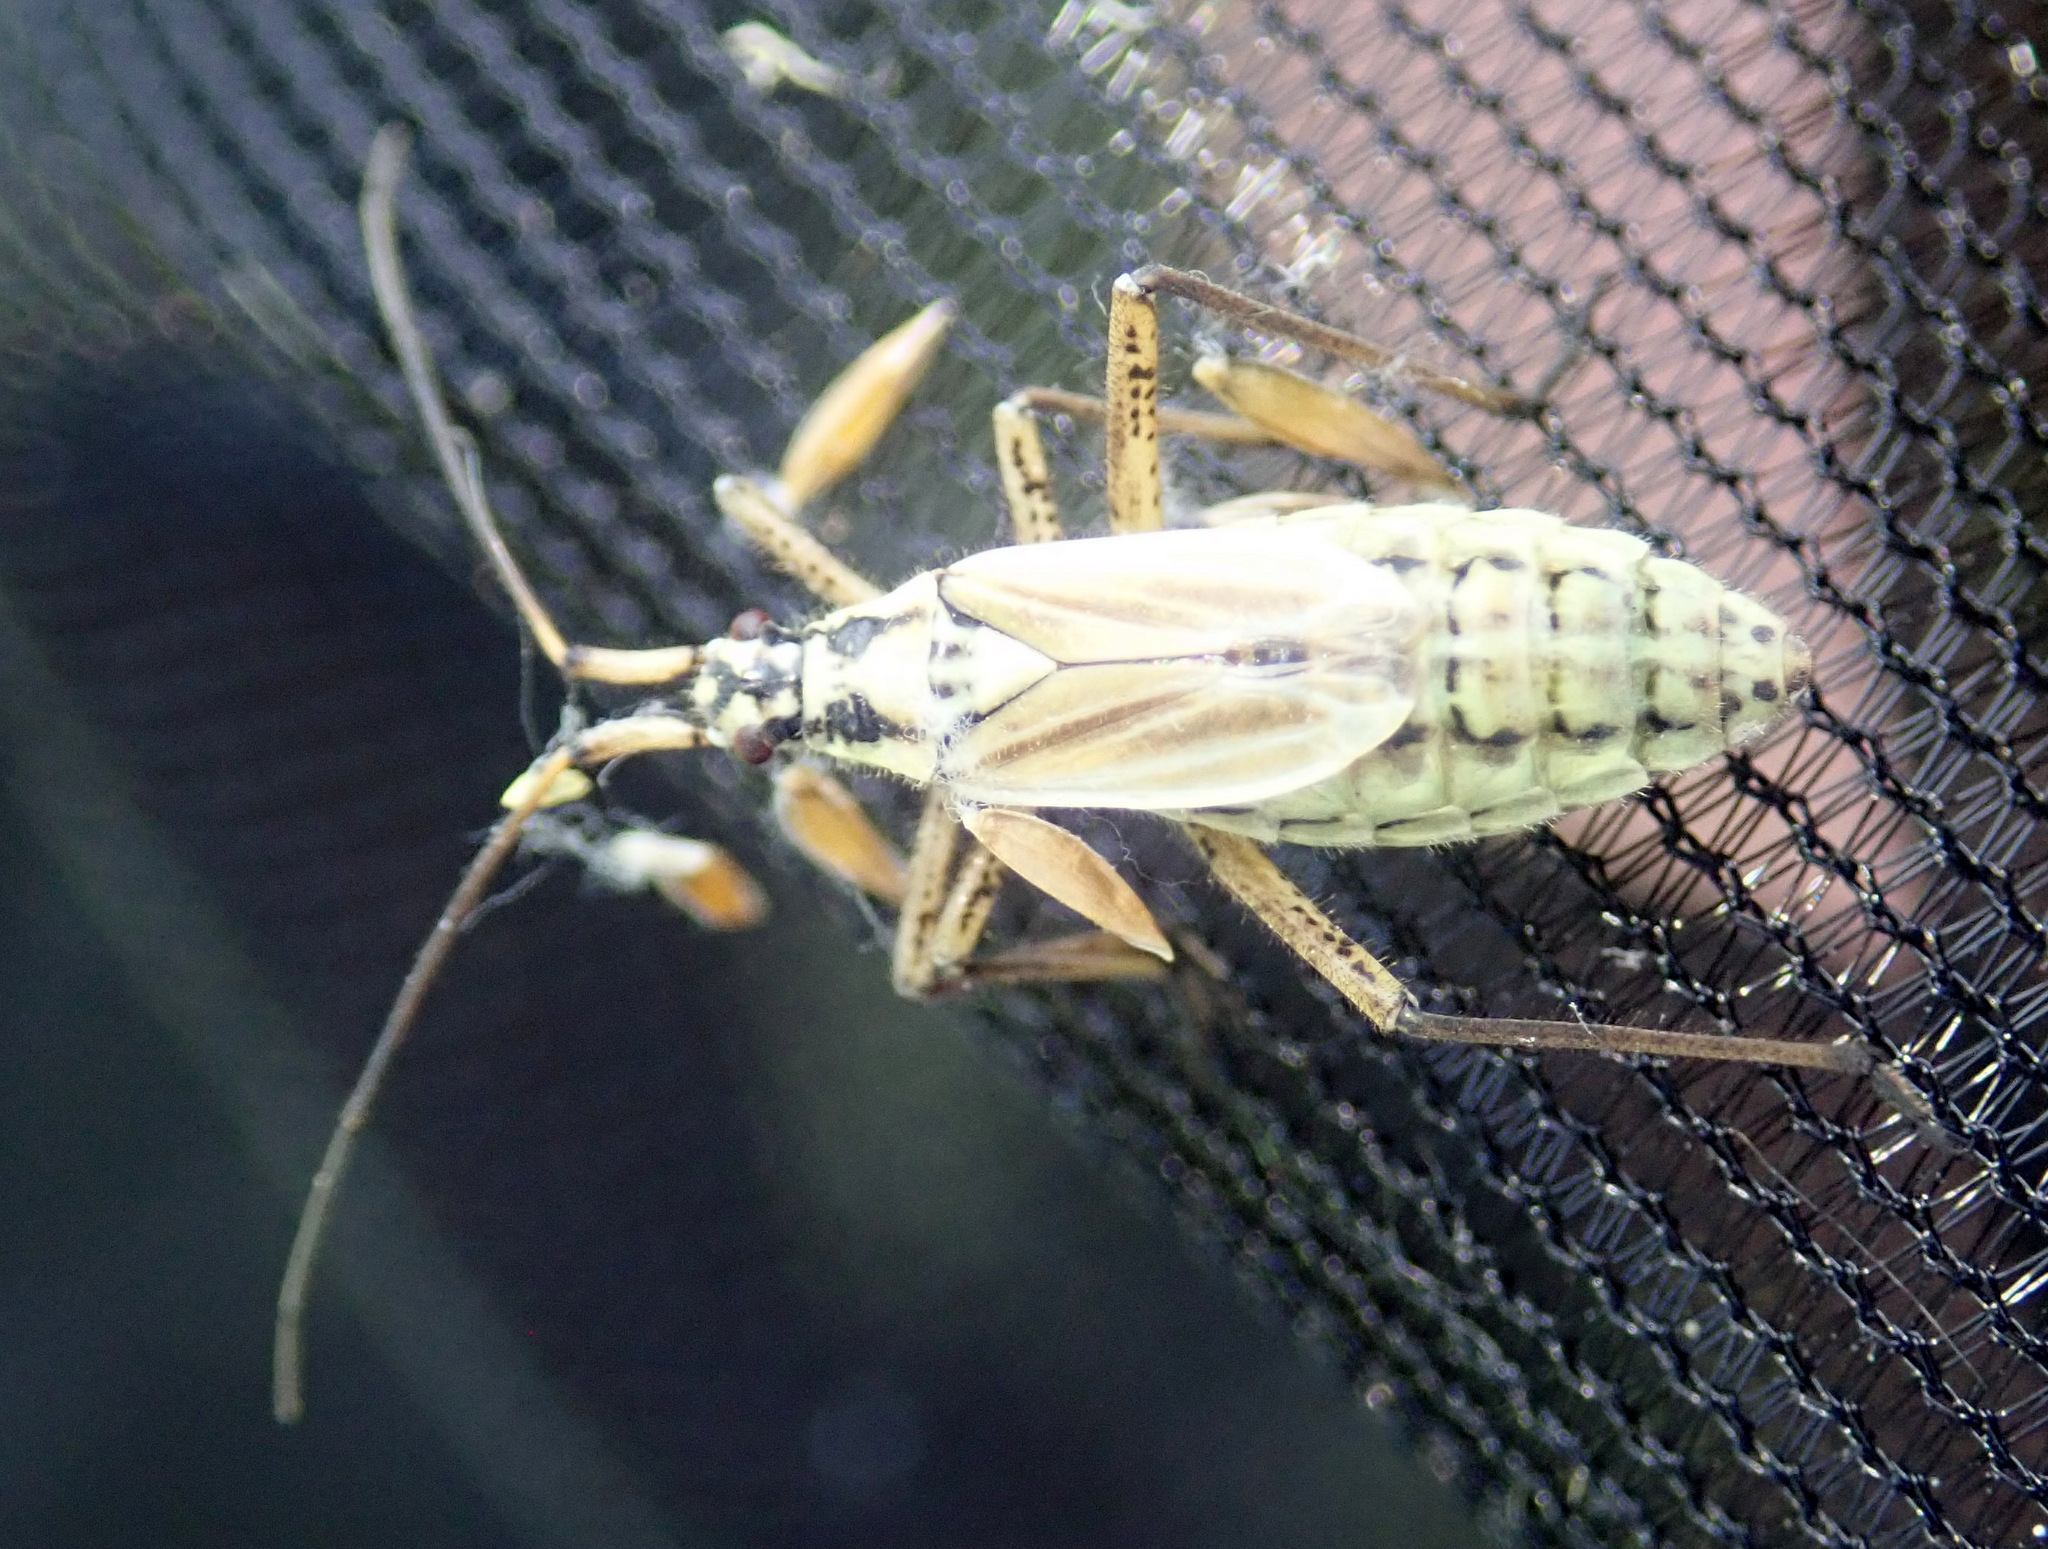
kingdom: Animalia
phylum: Arthropoda
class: Insecta
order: Hemiptera
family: Miridae
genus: Leptopterna
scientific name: Leptopterna dolabrata
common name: Meadow plant bug
